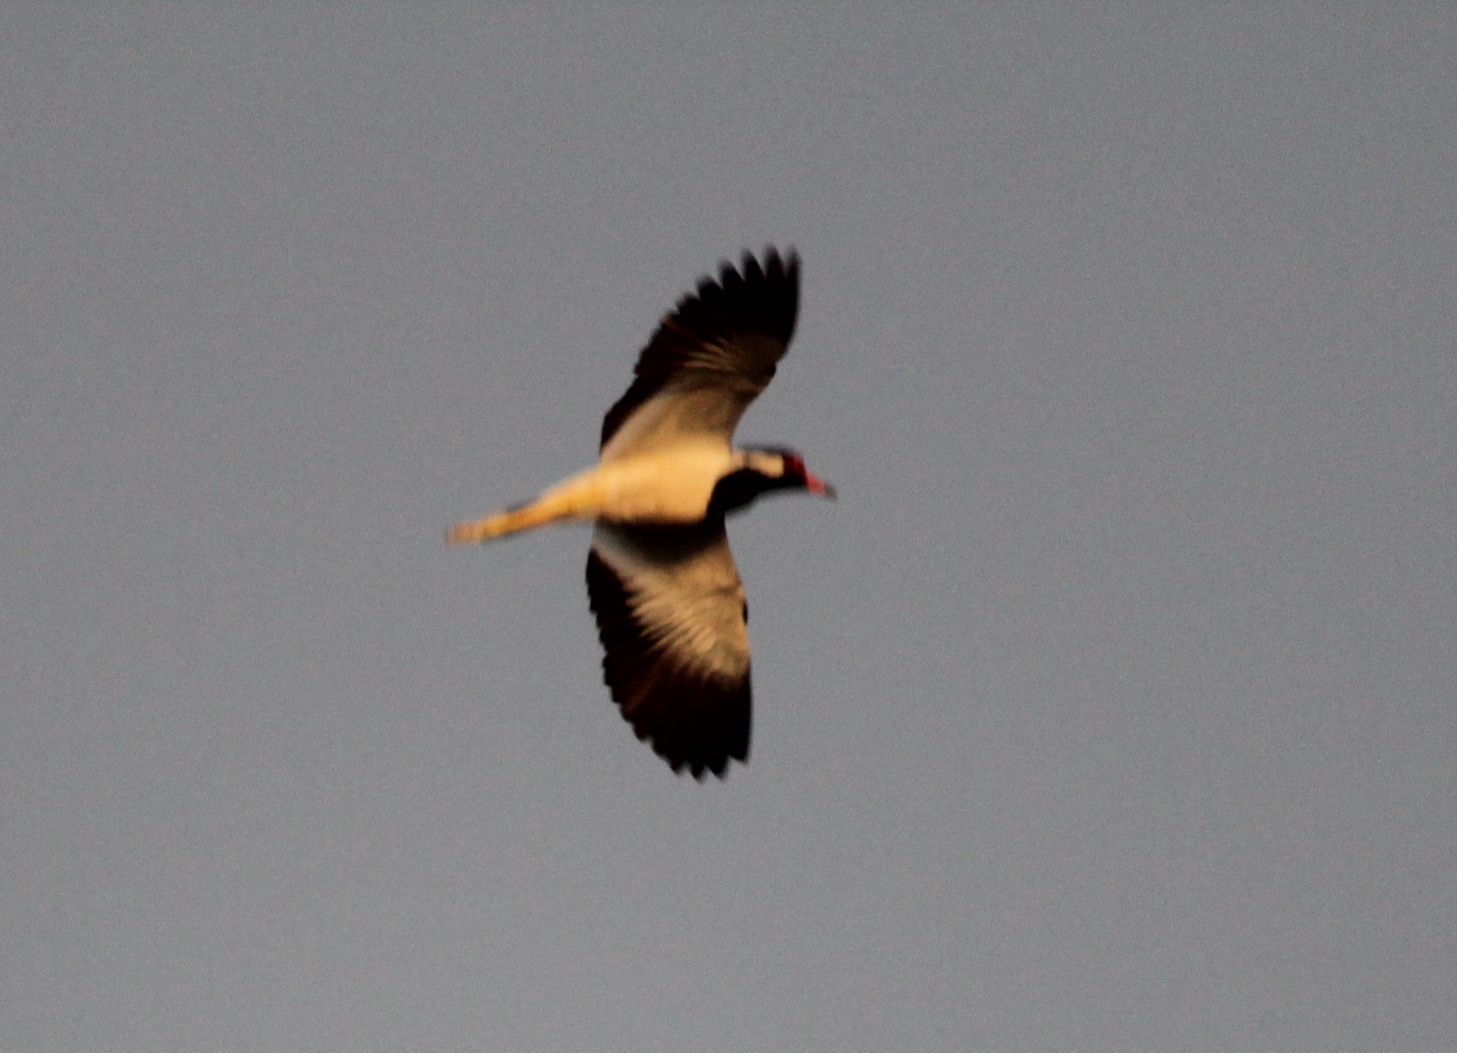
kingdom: Animalia
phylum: Chordata
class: Aves
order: Charadriiformes
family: Charadriidae
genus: Vanellus
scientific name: Vanellus indicus
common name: Red-wattled lapwing
